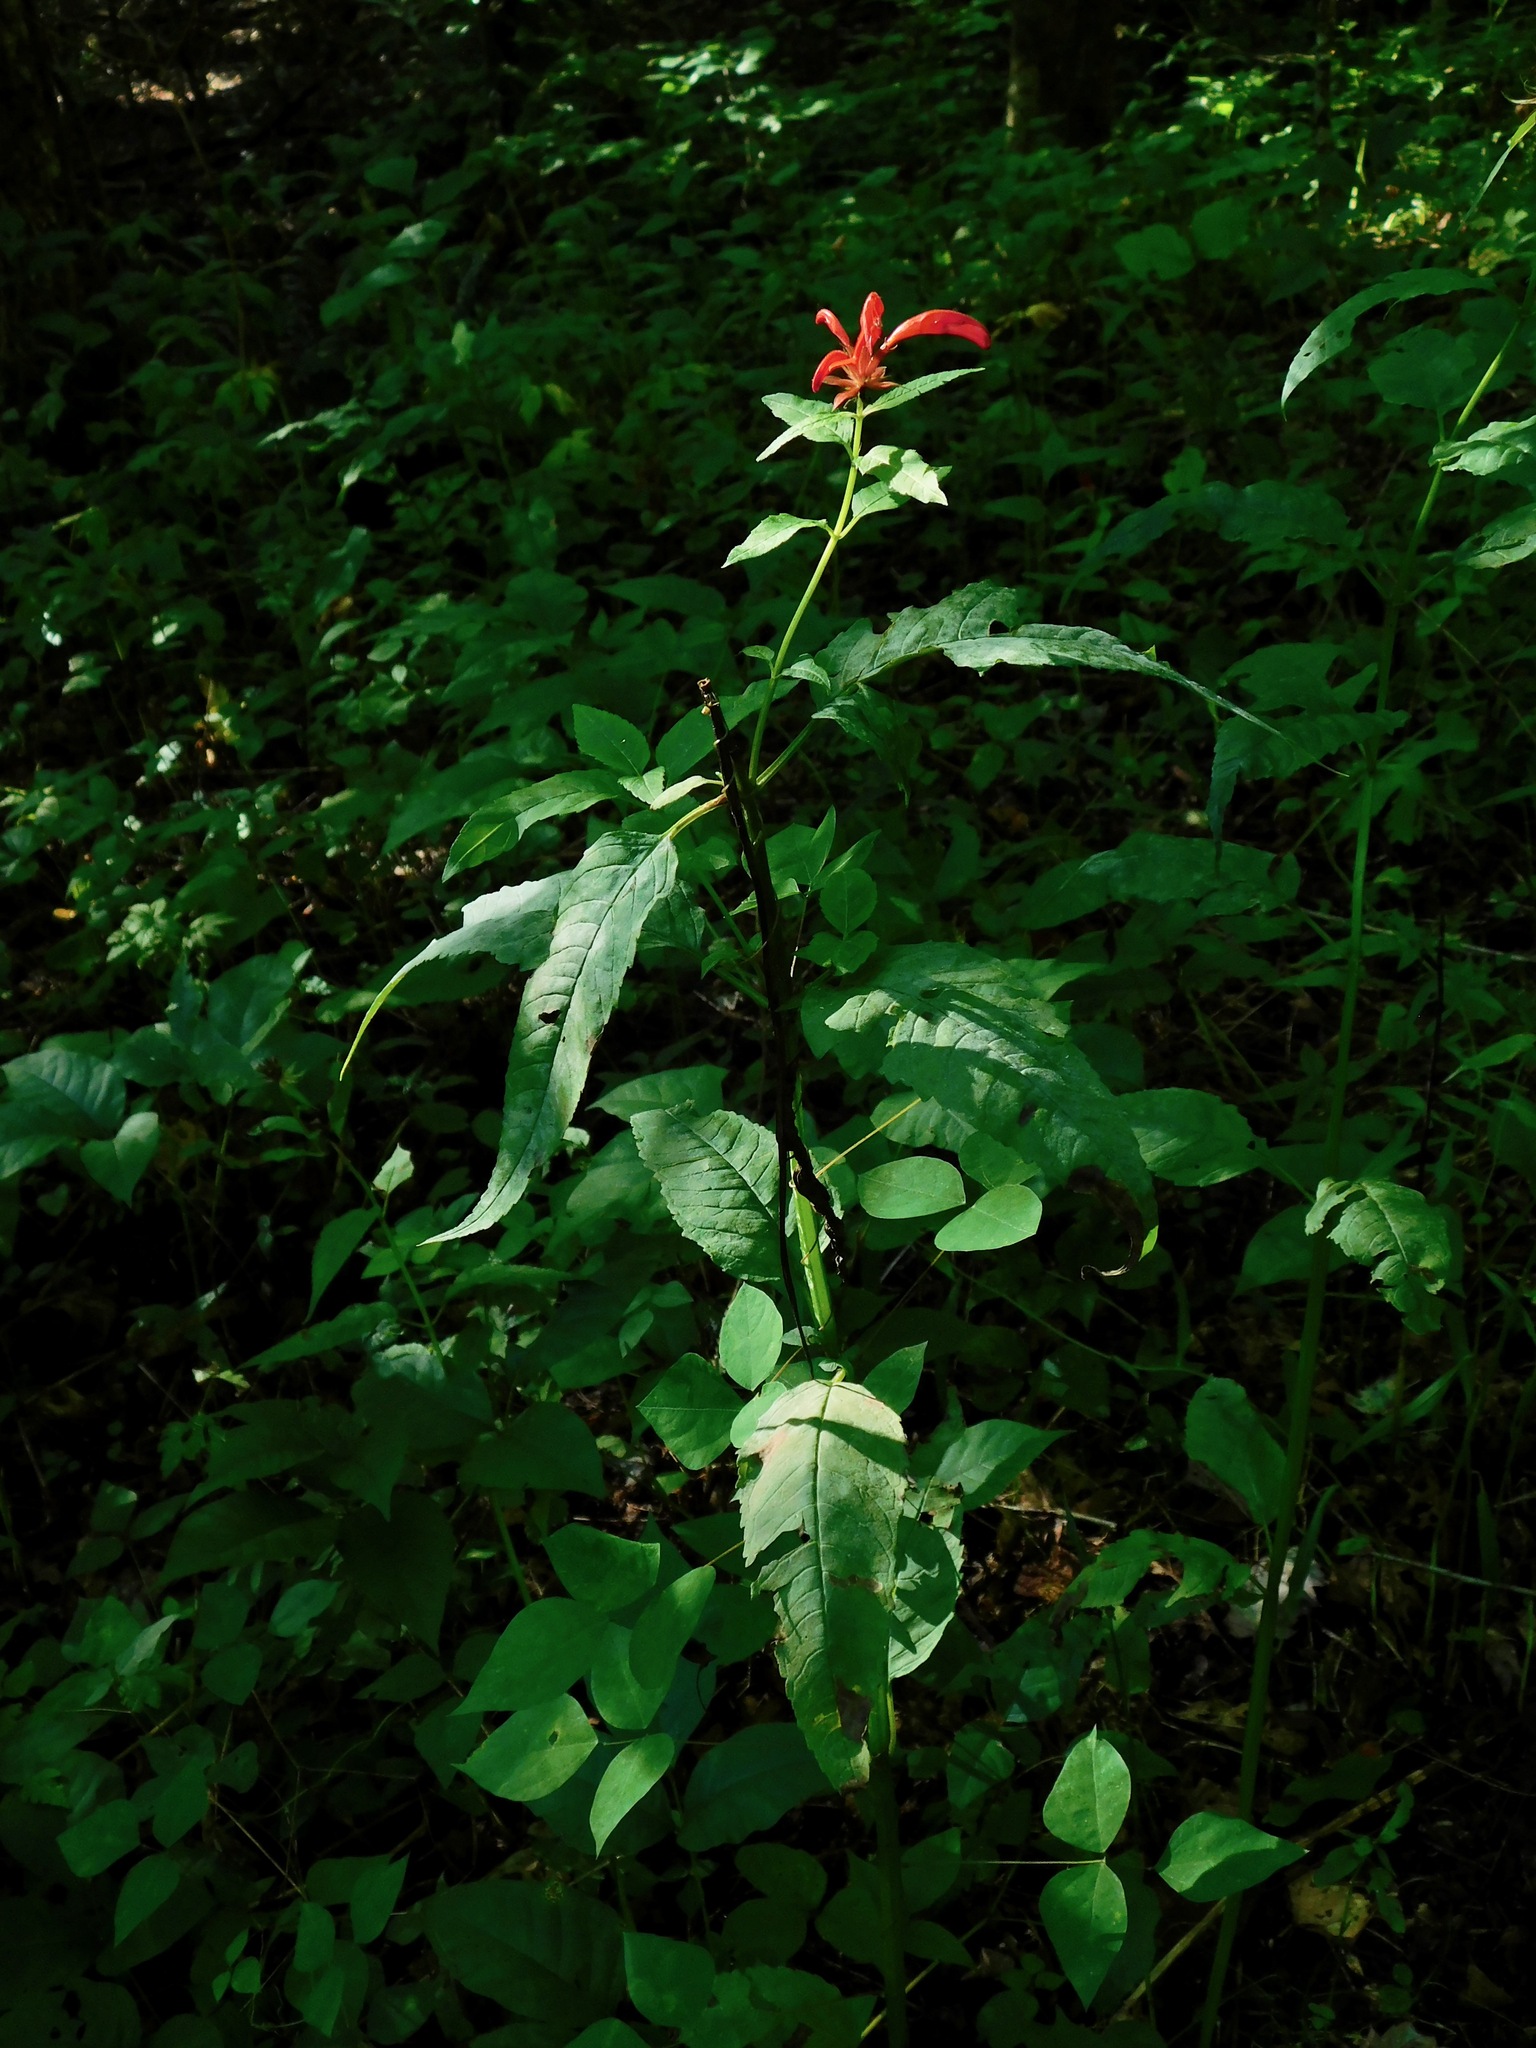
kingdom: Plantae
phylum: Tracheophyta
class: Magnoliopsida
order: Lamiales
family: Lamiaceae
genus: Monarda
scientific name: Monarda didyma
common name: Beebalm
